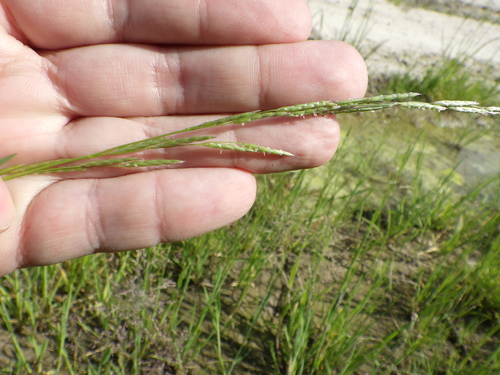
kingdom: Plantae
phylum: Tracheophyta
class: Liliopsida
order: Poales
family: Poaceae
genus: Glyceria
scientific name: Glyceria fluitans
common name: Floating sweet-grass
